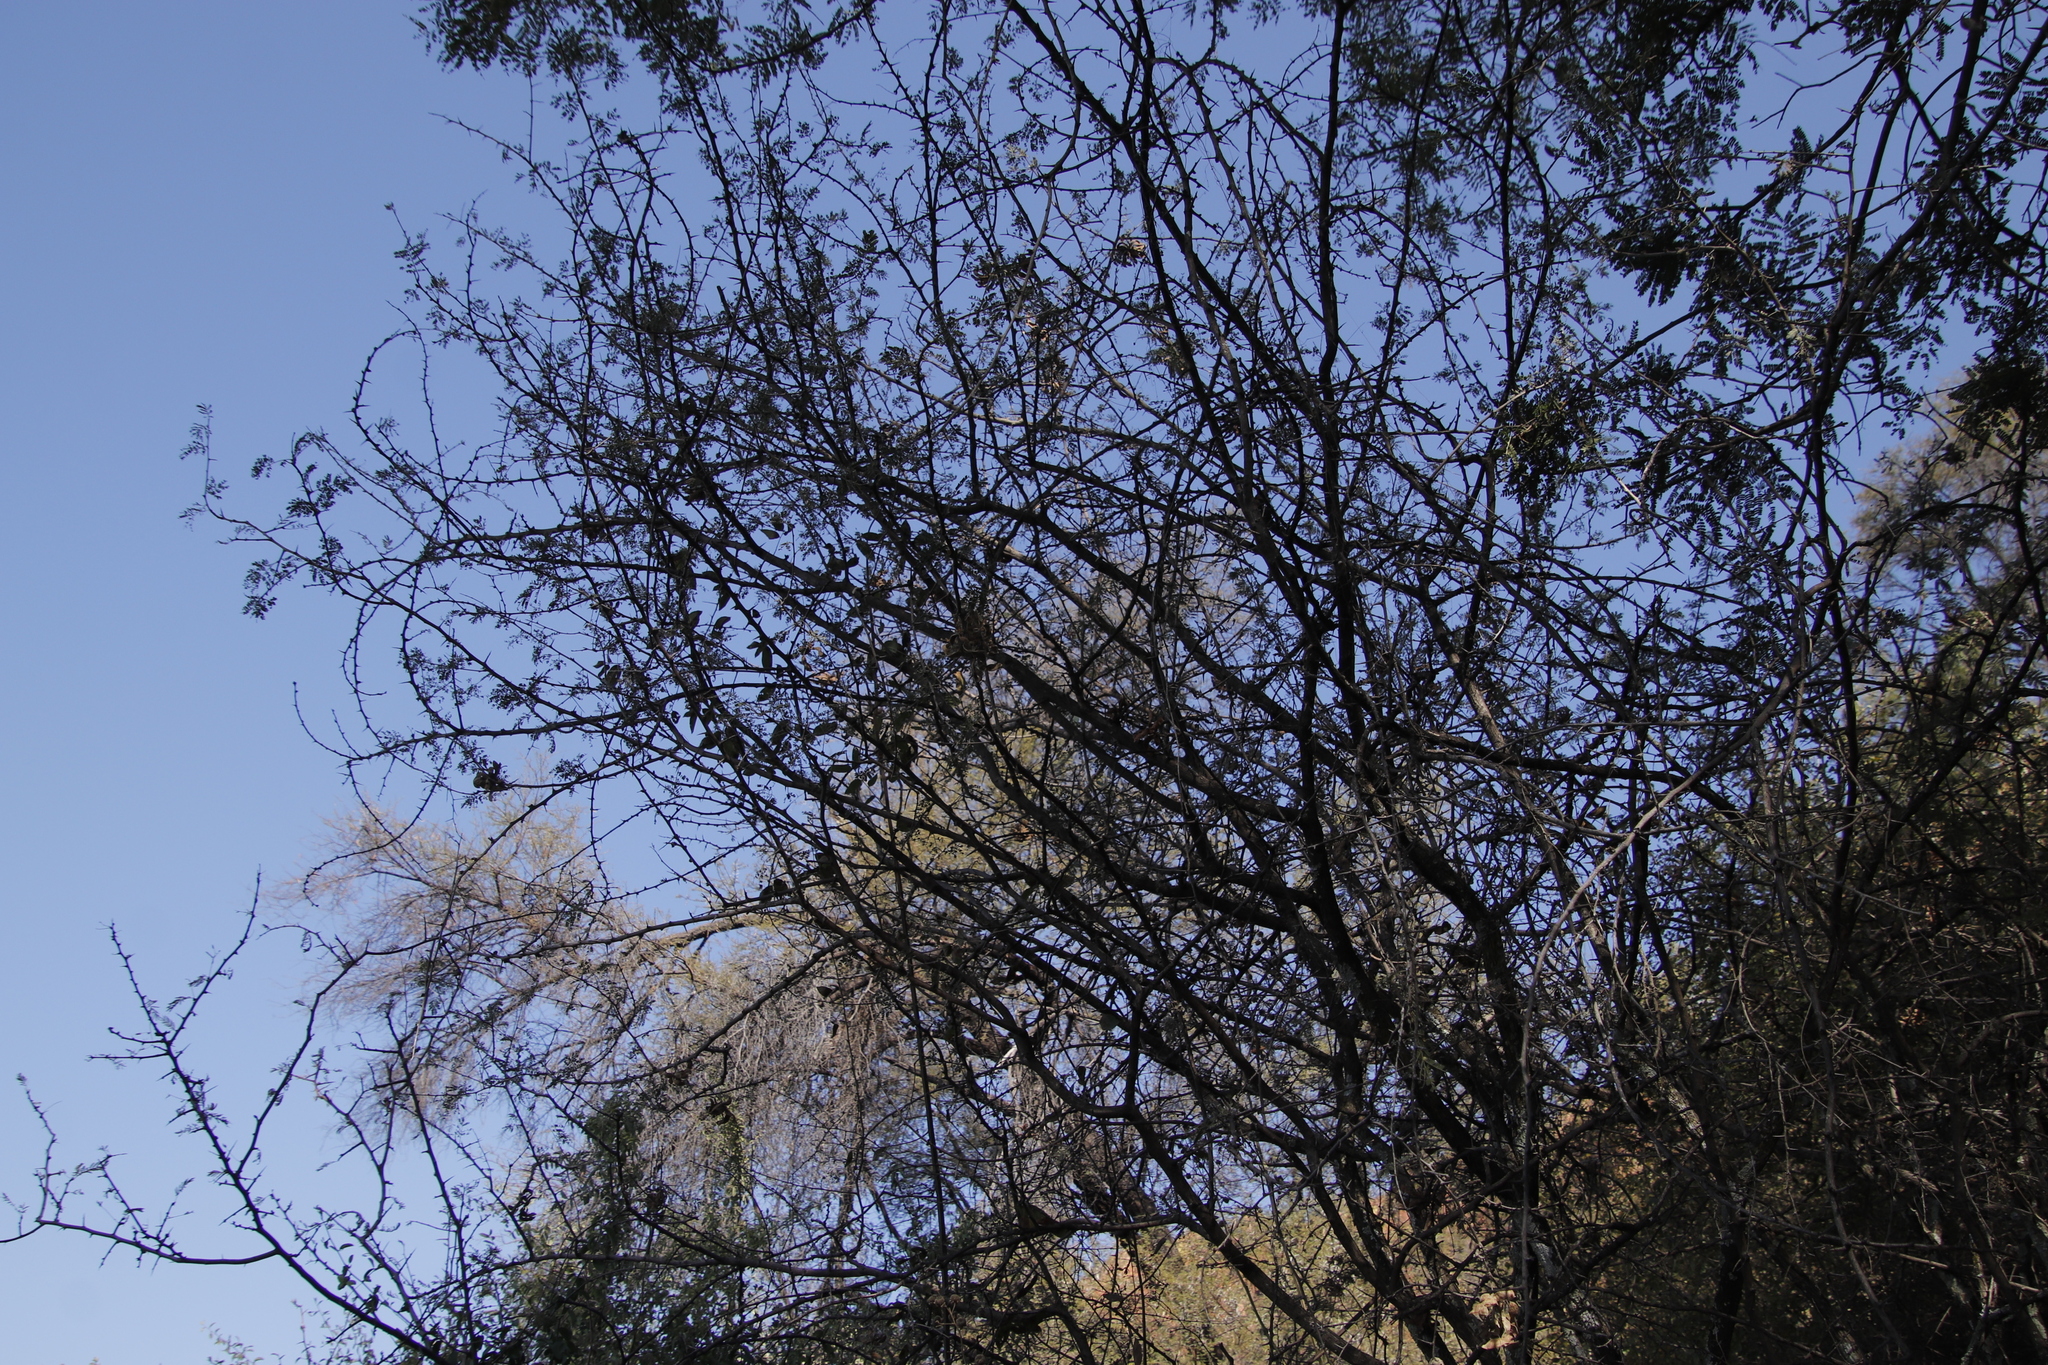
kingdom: Plantae
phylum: Tracheophyta
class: Magnoliopsida
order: Fabales
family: Fabaceae
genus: Dichrostachys
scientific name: Dichrostachys cinerea
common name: Sicklebush
